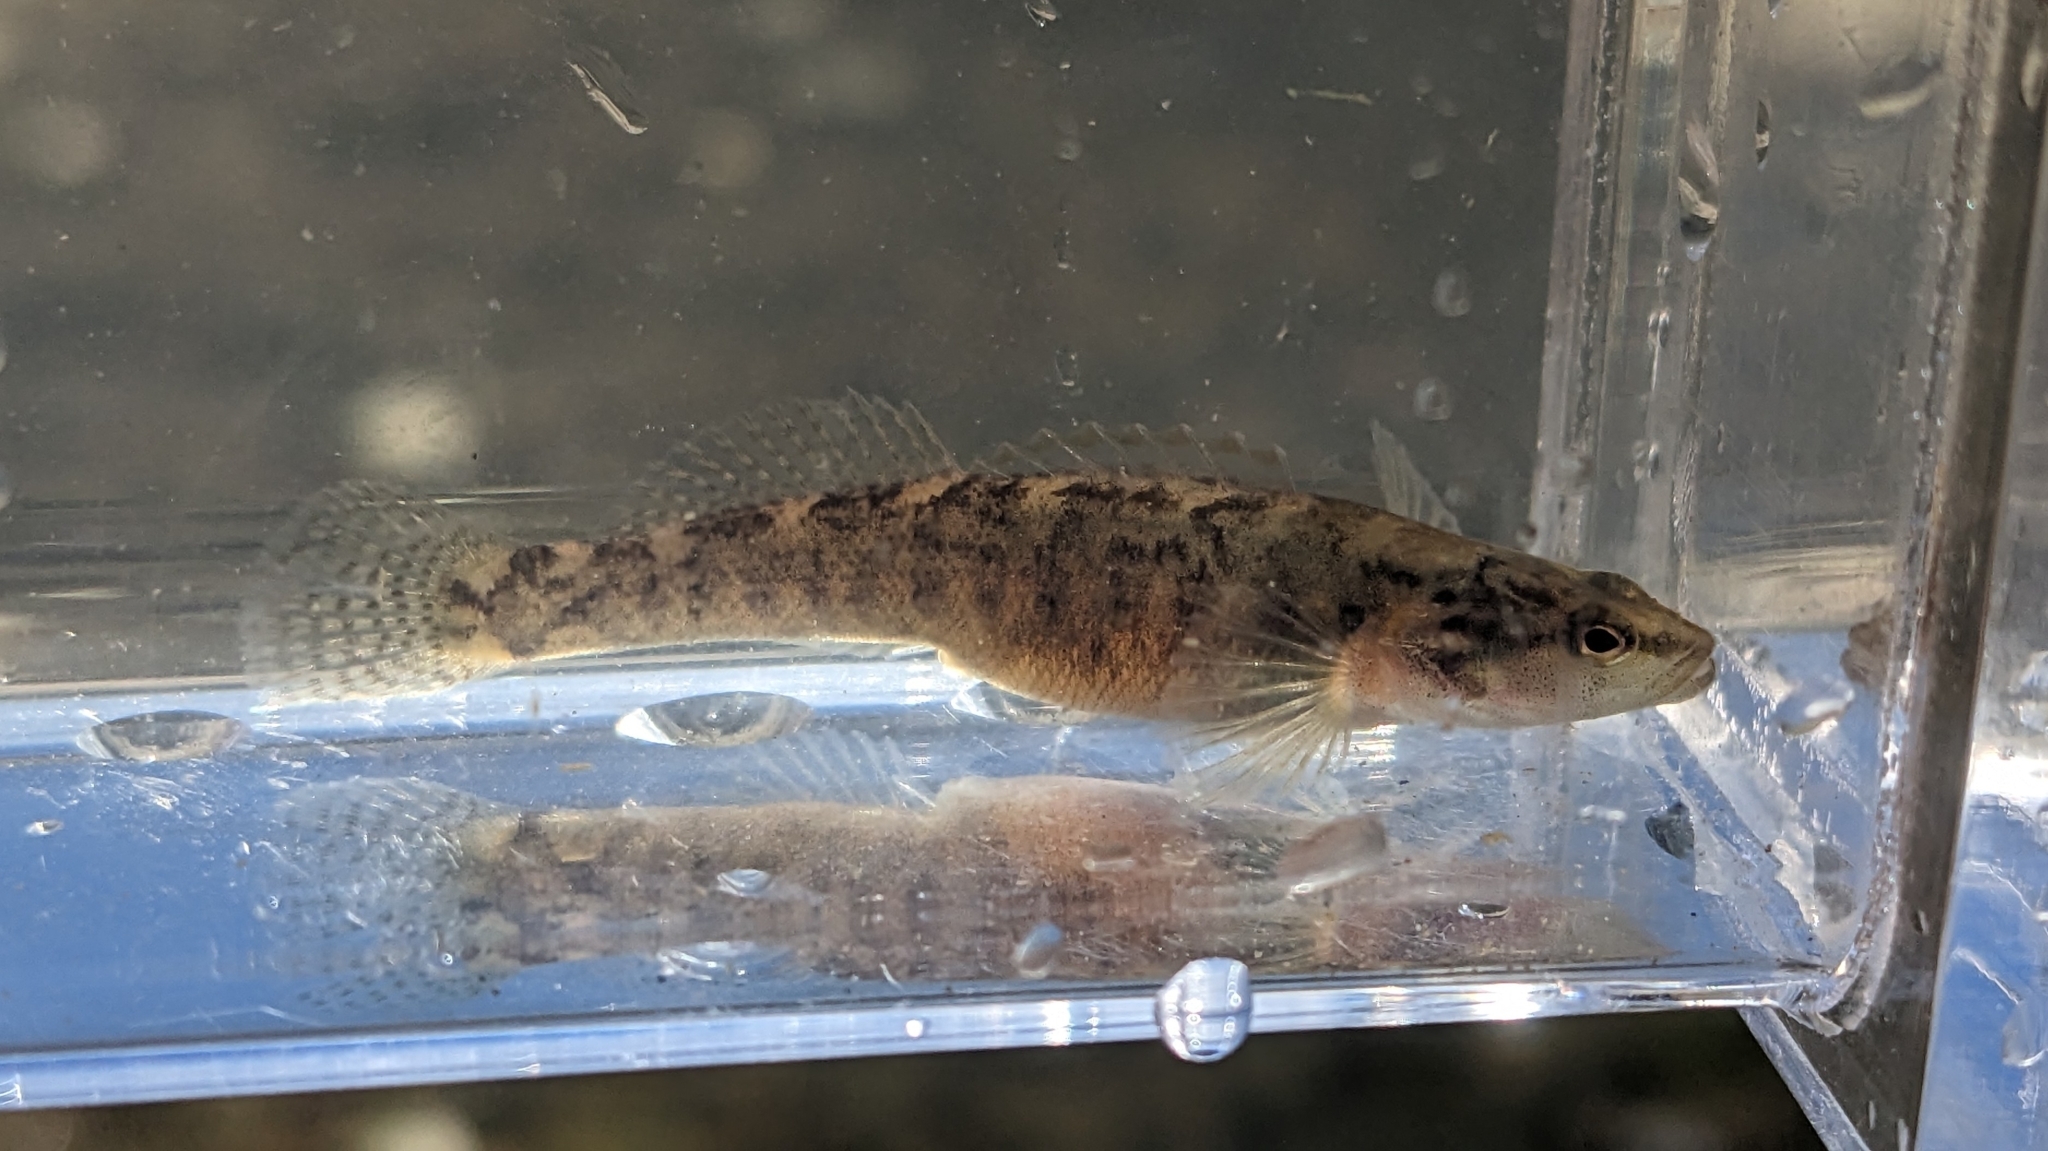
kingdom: Animalia
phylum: Chordata
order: Perciformes
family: Percidae
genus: Etheostoma
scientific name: Etheostoma flabellare
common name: Fantail darter
